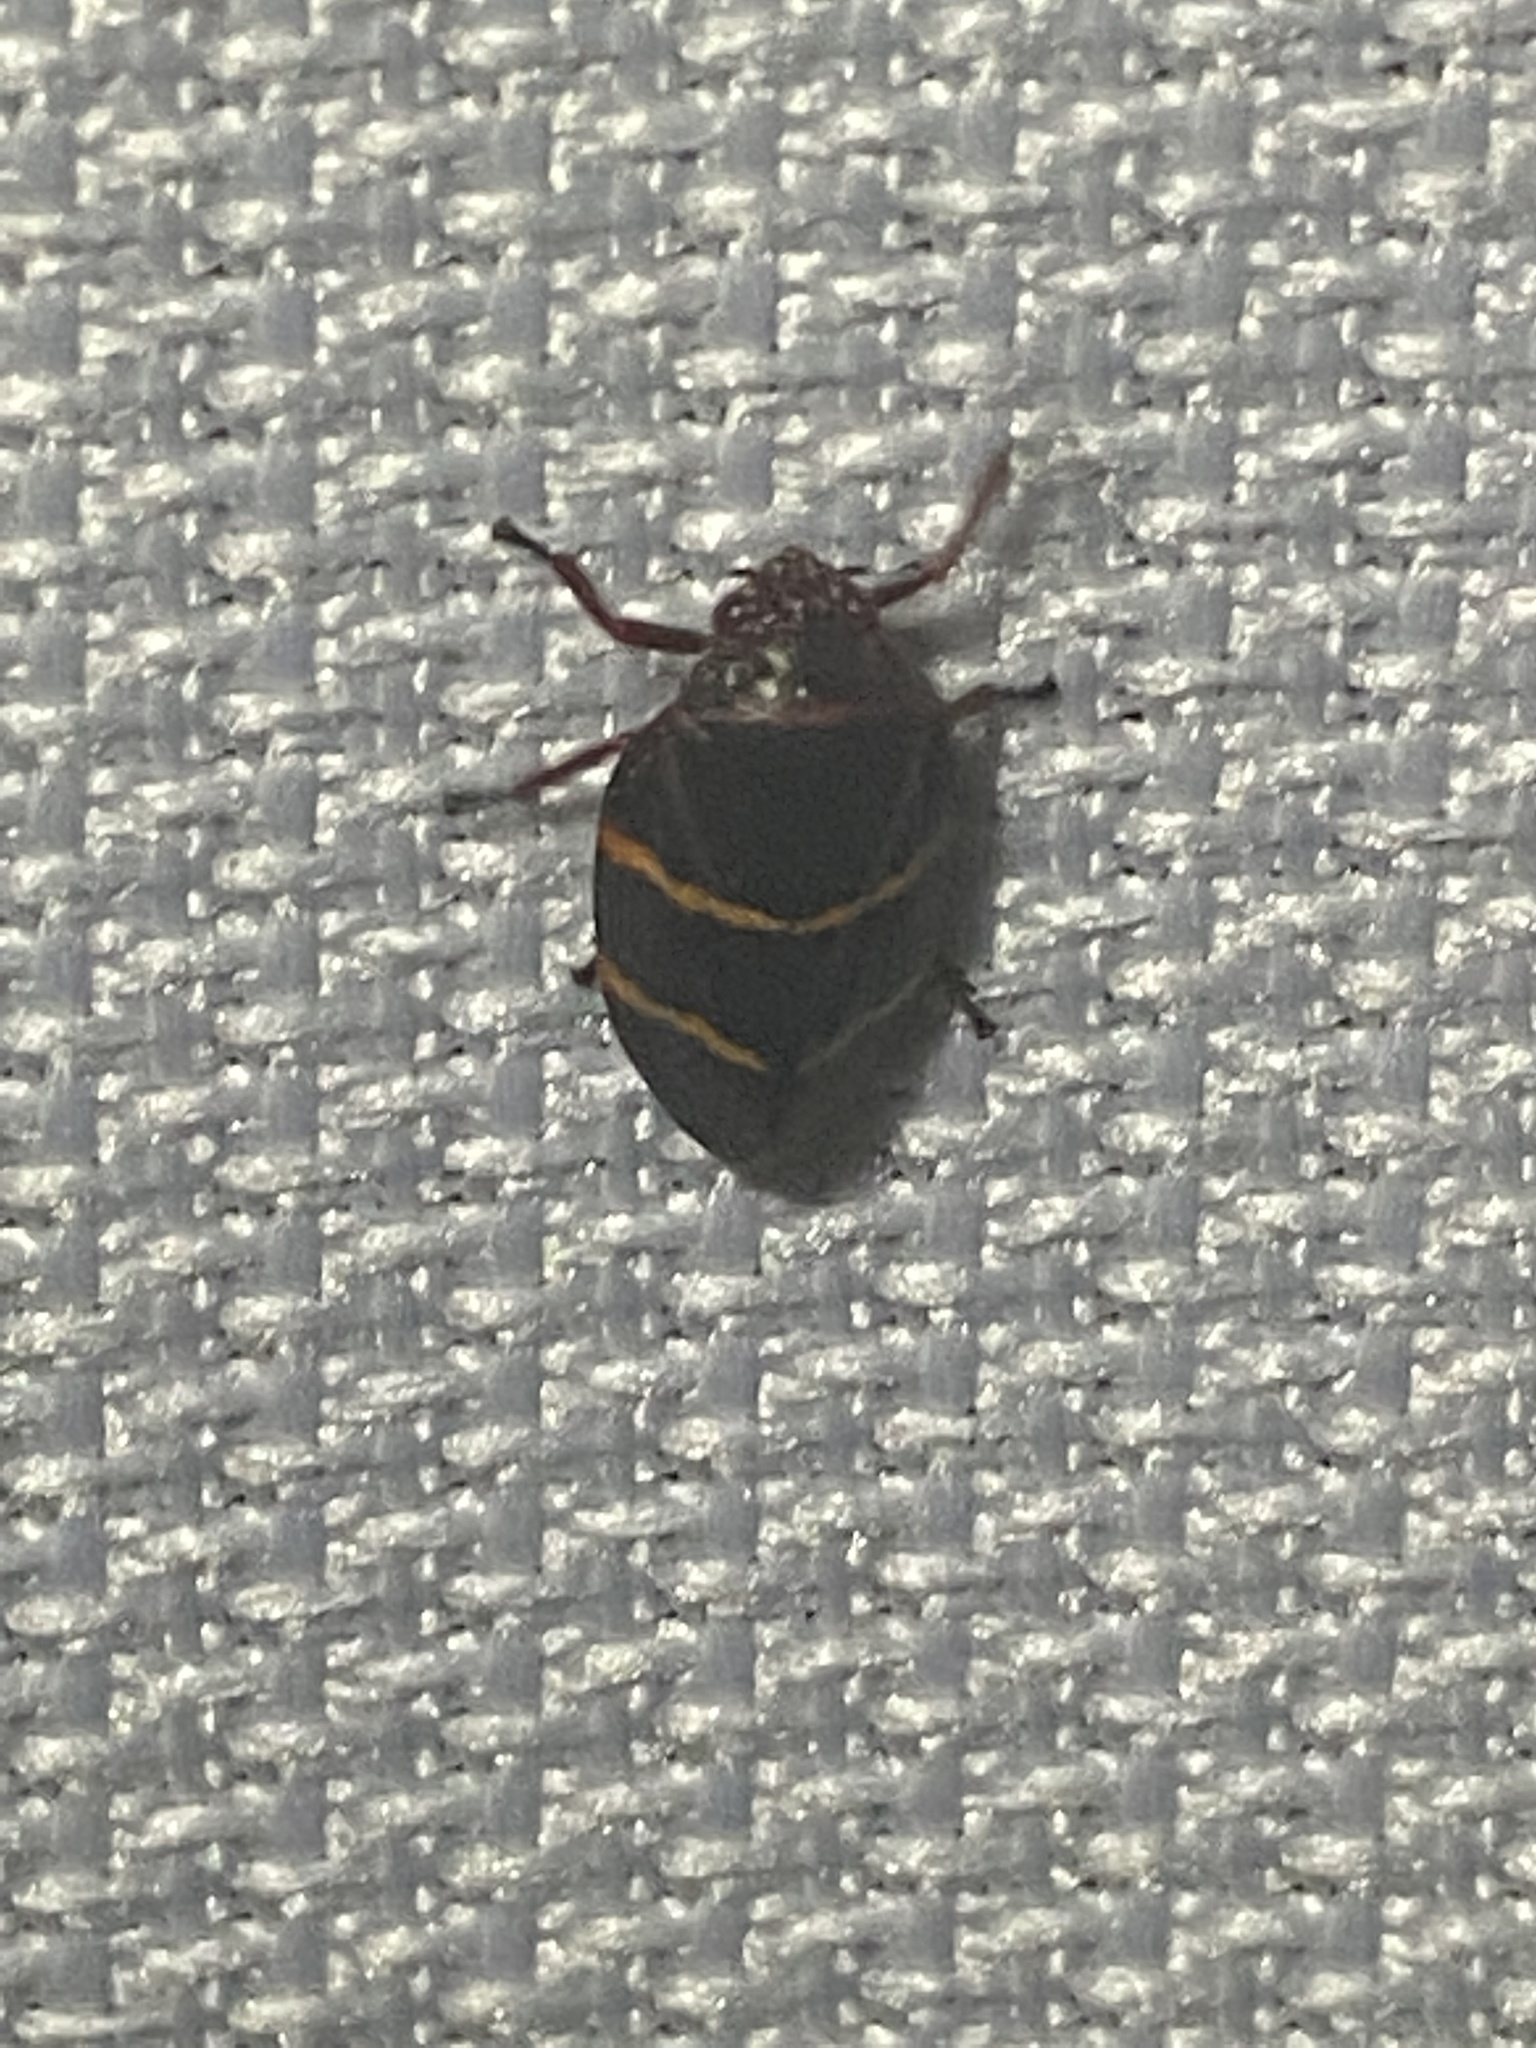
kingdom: Animalia
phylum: Arthropoda
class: Insecta
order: Hemiptera
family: Cercopidae
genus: Prosapia
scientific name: Prosapia bicincta
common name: Twolined spittlebug
